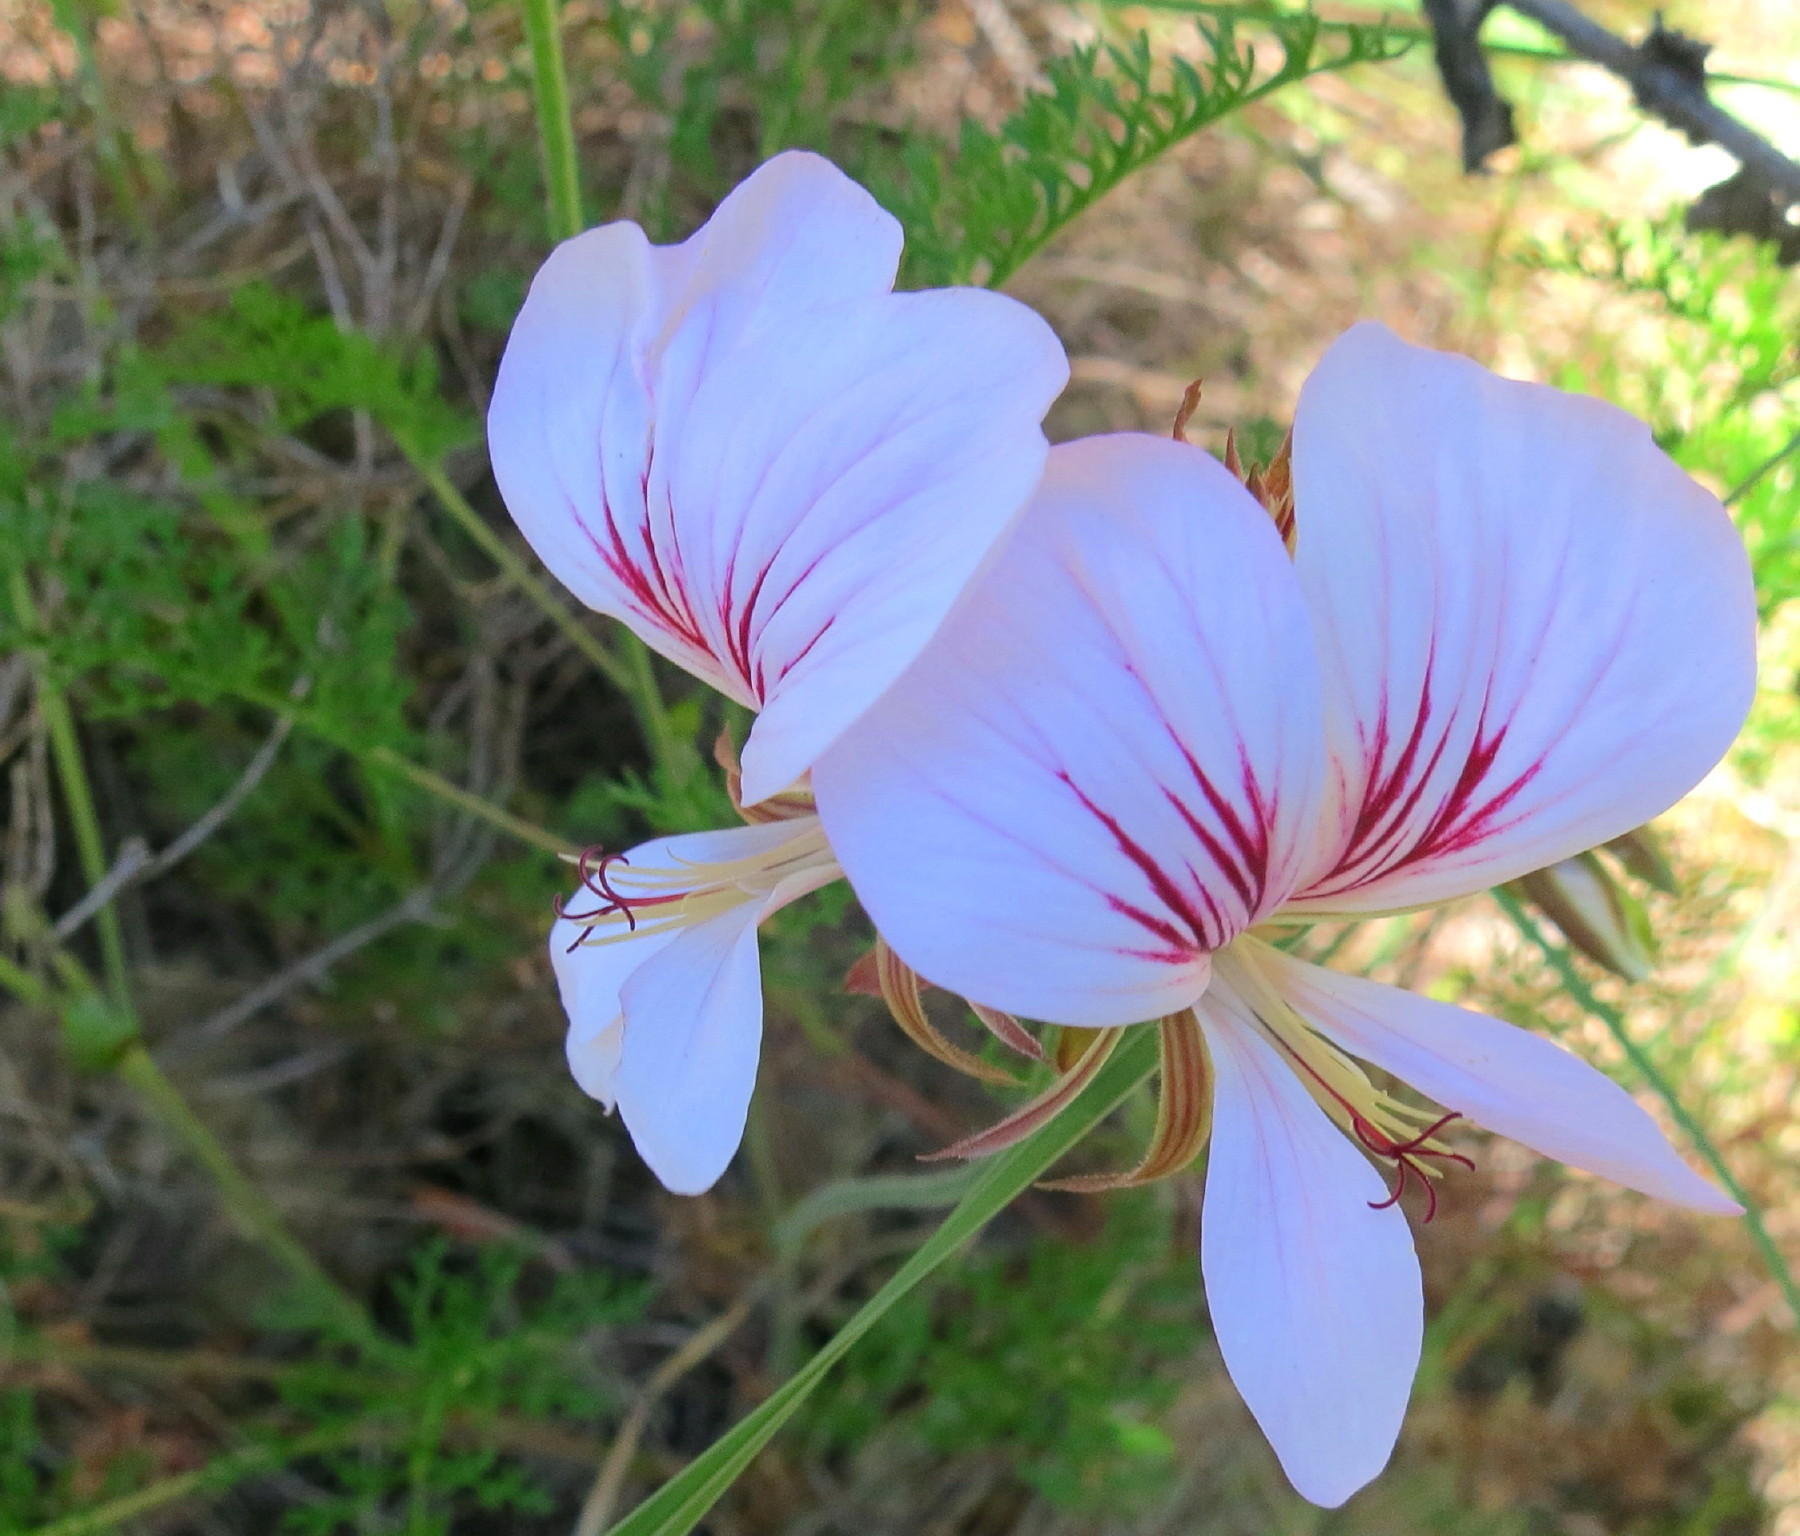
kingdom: Plantae
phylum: Tracheophyta
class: Magnoliopsida
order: Geraniales
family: Geraniaceae
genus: Pelargonium
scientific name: Pelargonium myrrhifolium
